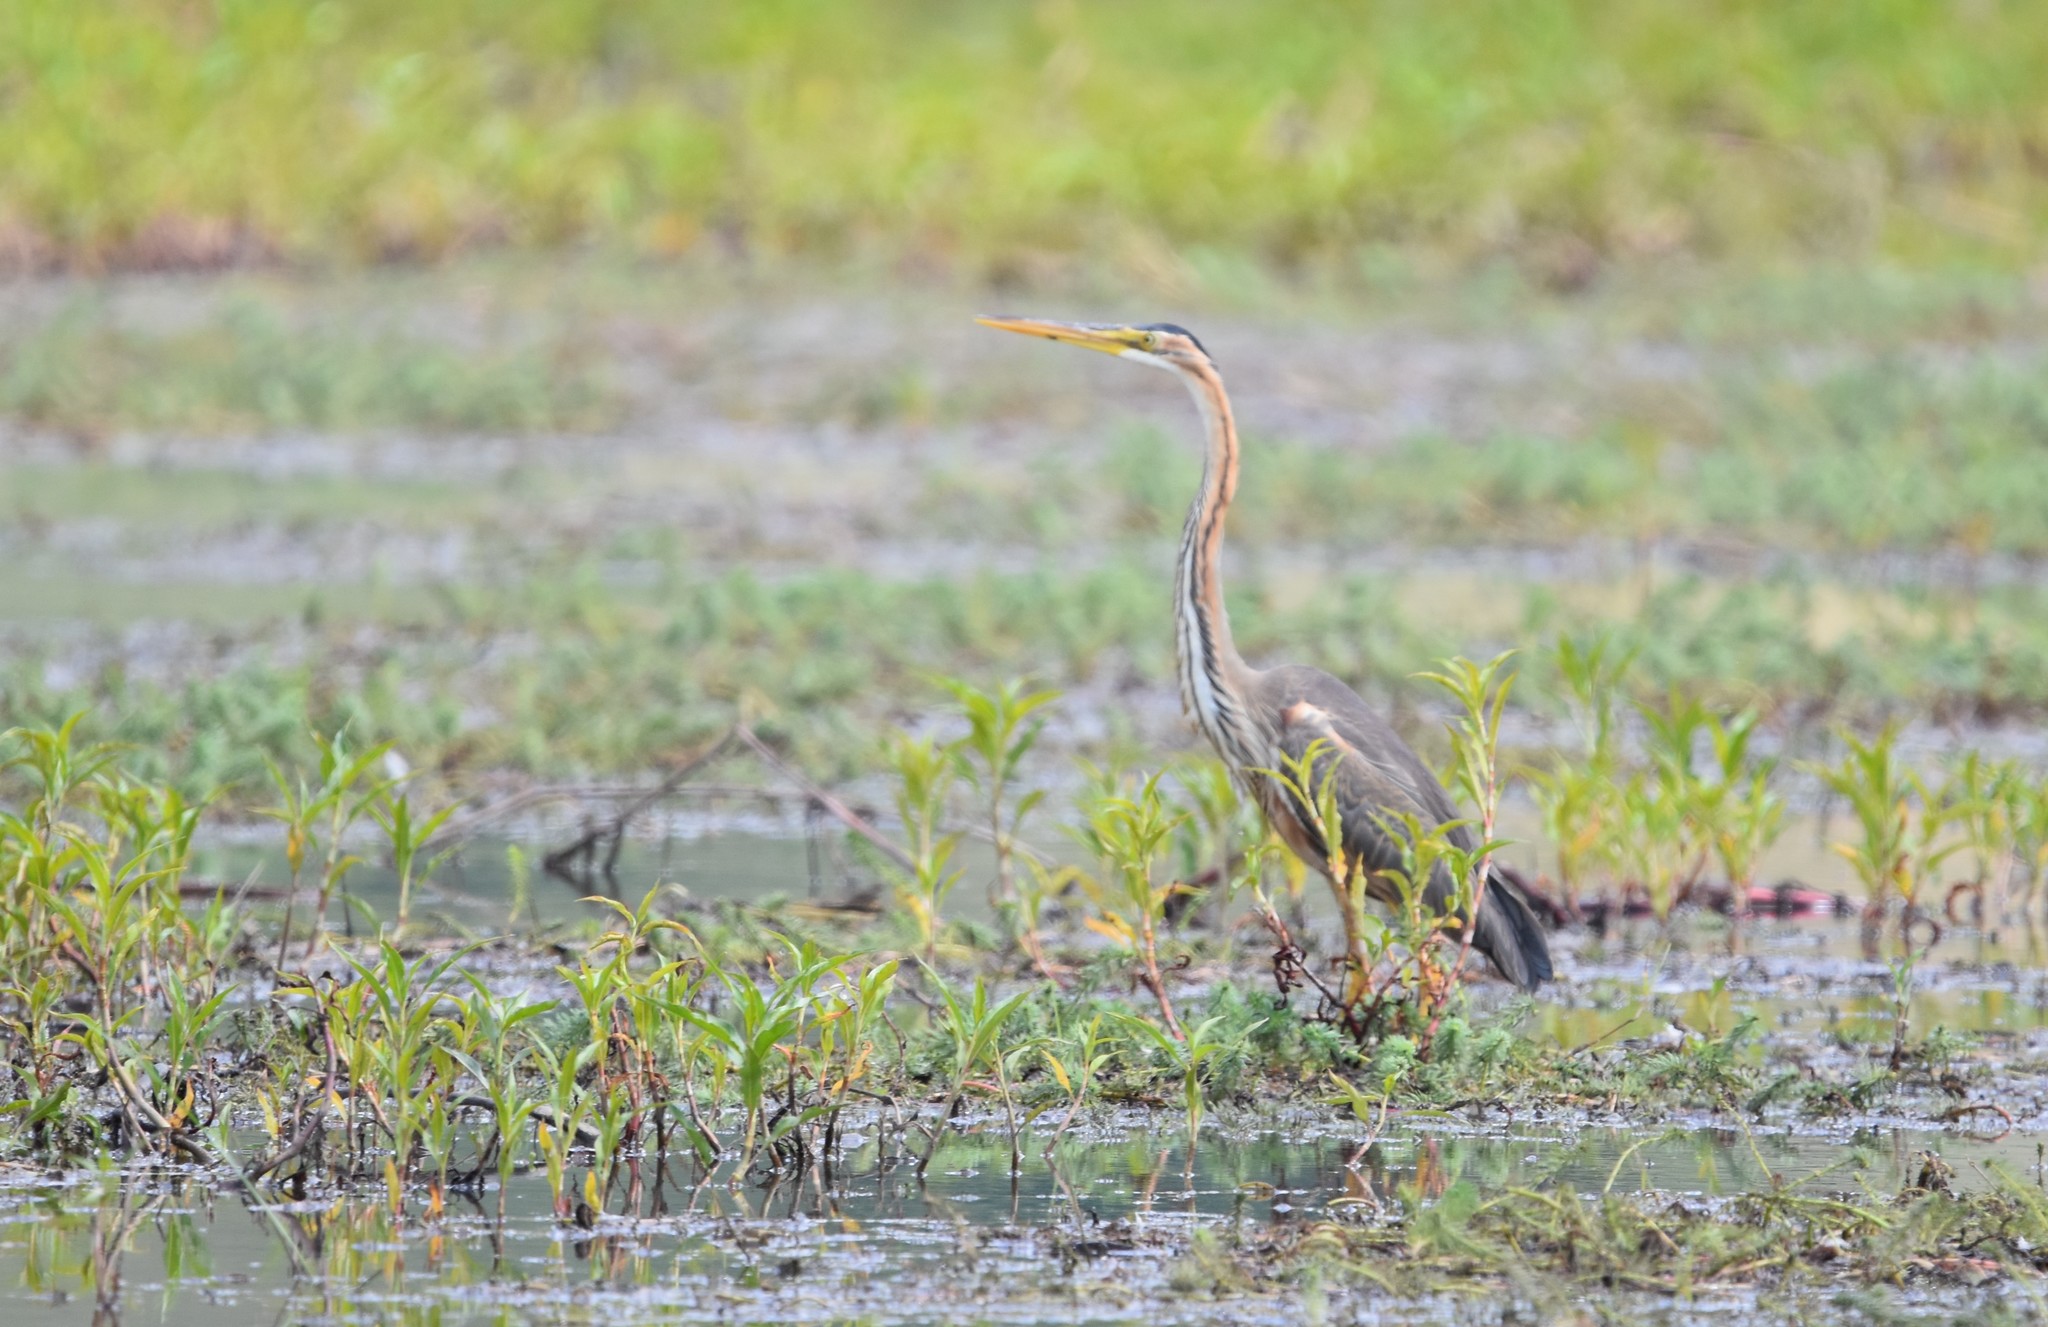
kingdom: Animalia
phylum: Chordata
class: Aves
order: Pelecaniformes
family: Ardeidae
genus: Ardea
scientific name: Ardea purpurea
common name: Purple heron
